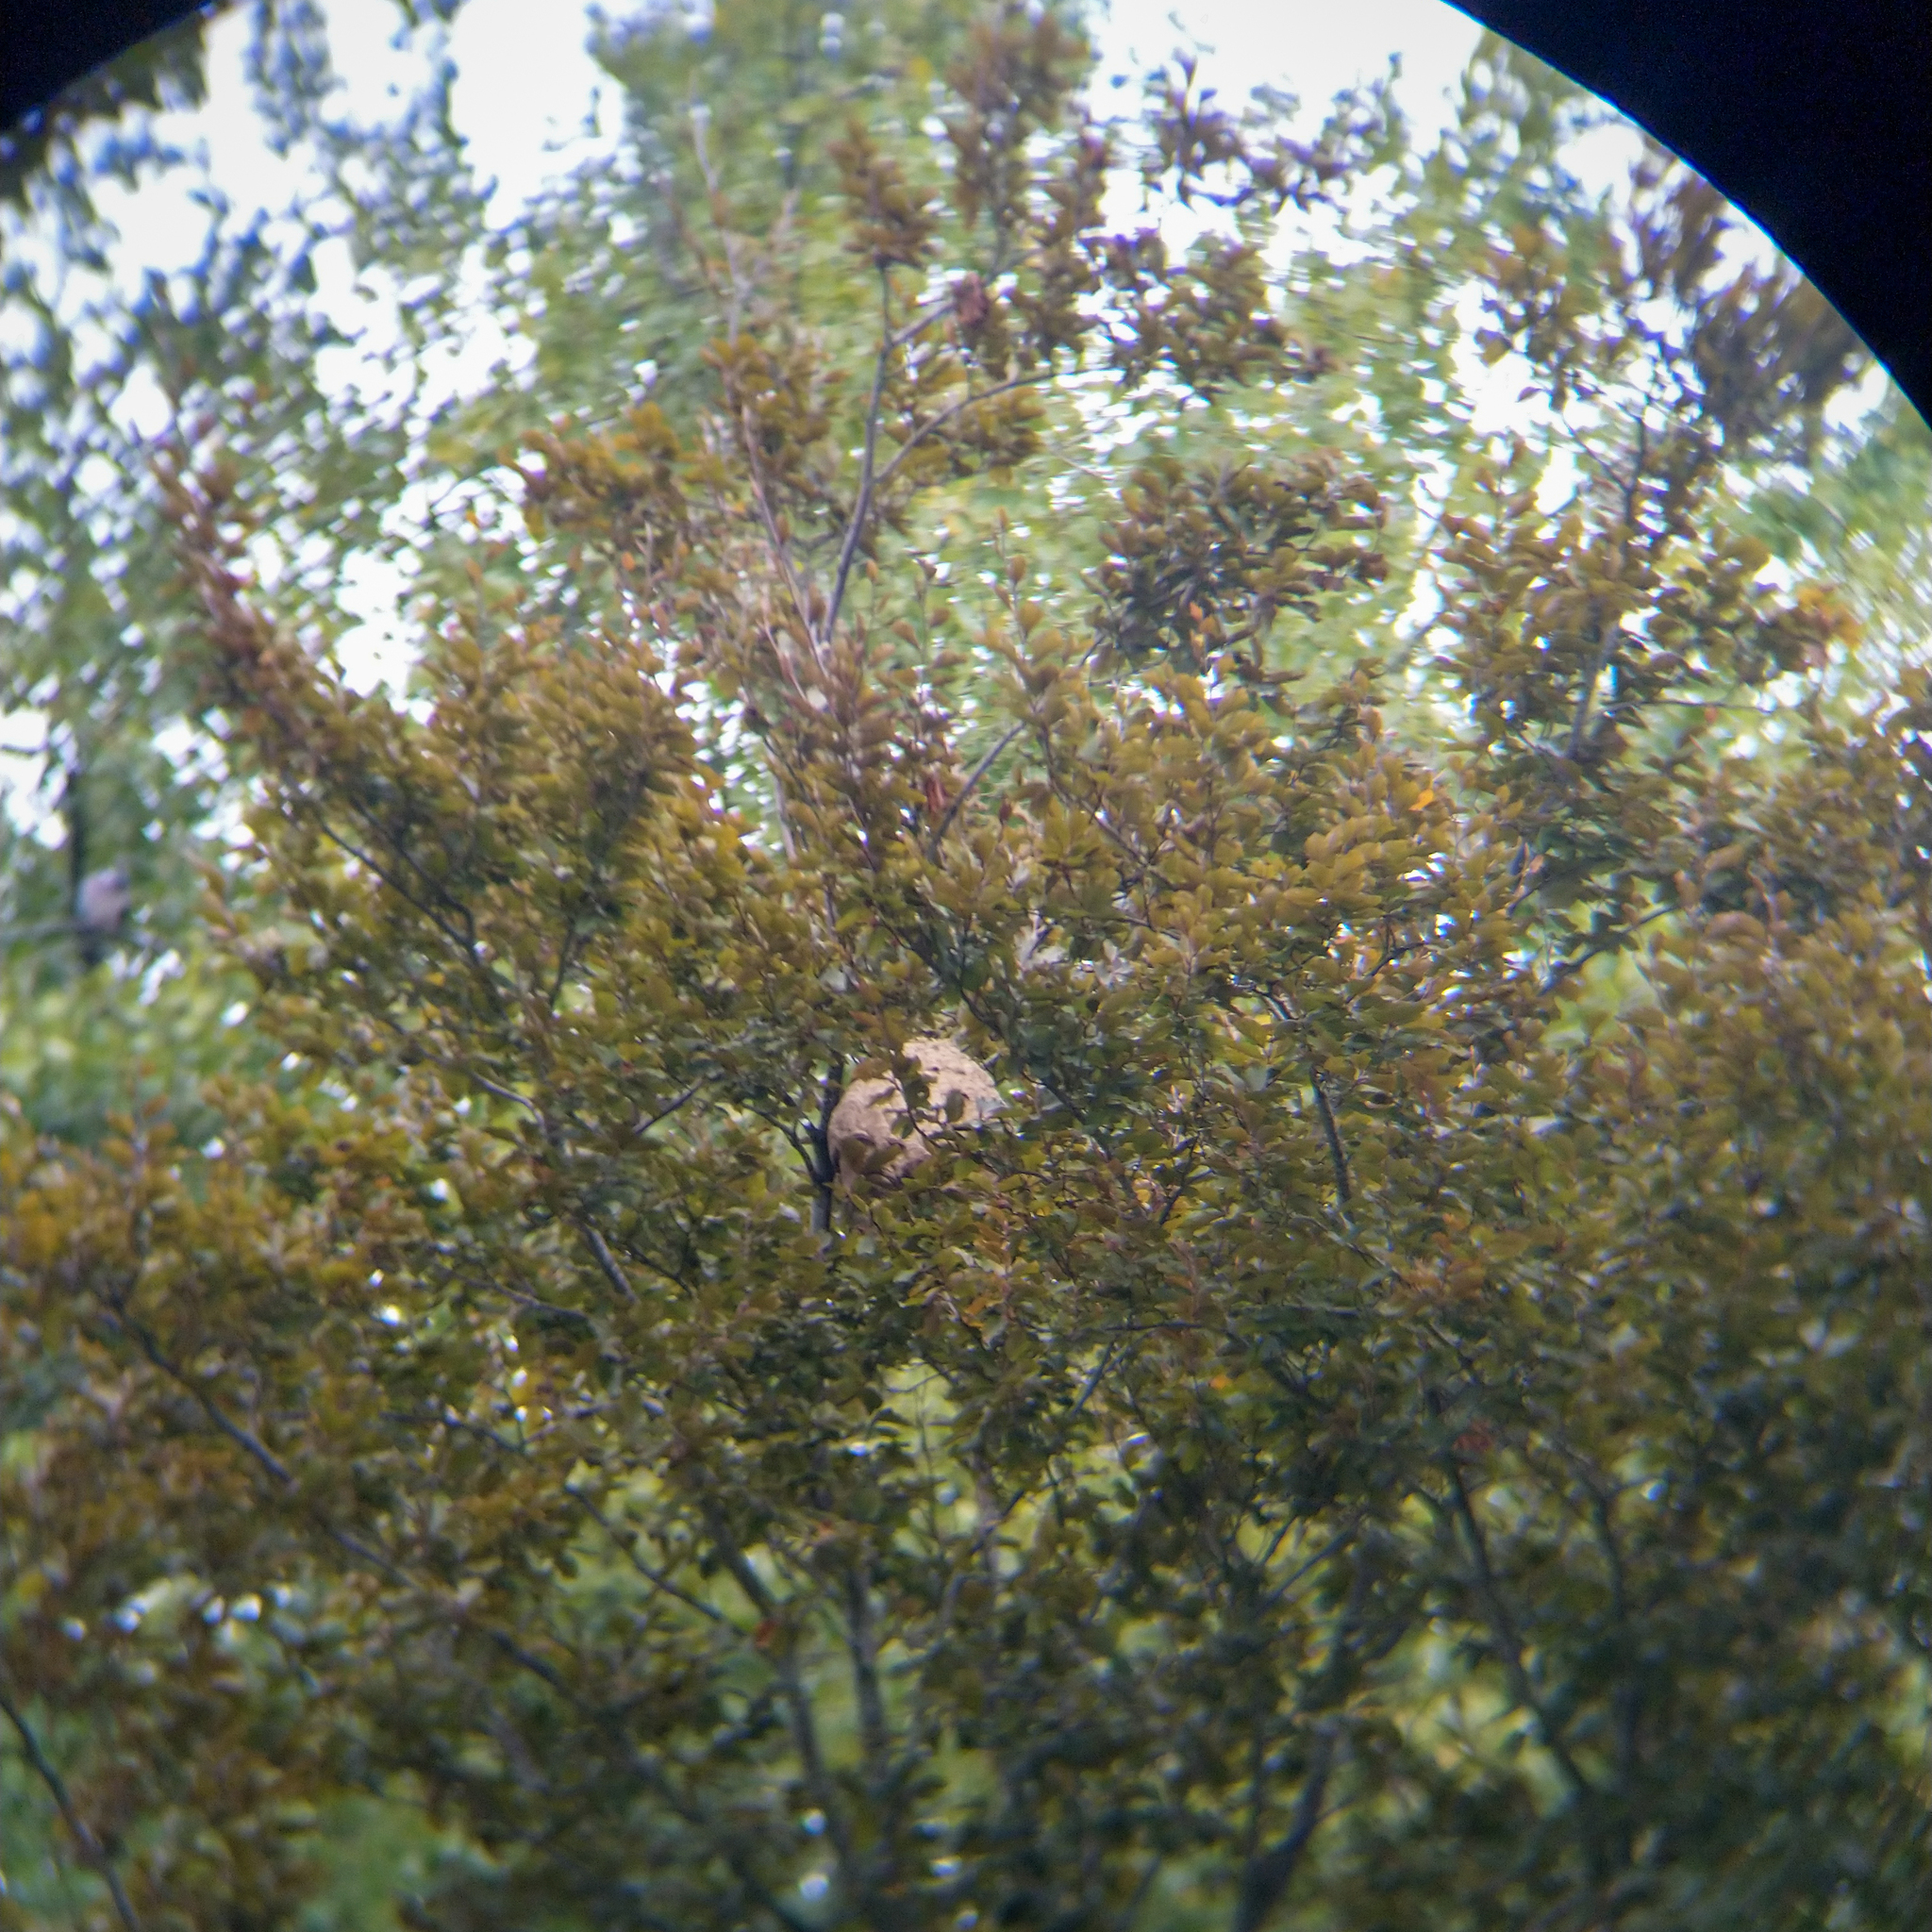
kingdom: Animalia
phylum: Arthropoda
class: Insecta
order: Hymenoptera
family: Vespidae
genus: Vespa
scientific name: Vespa velutina
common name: Asian hornet
